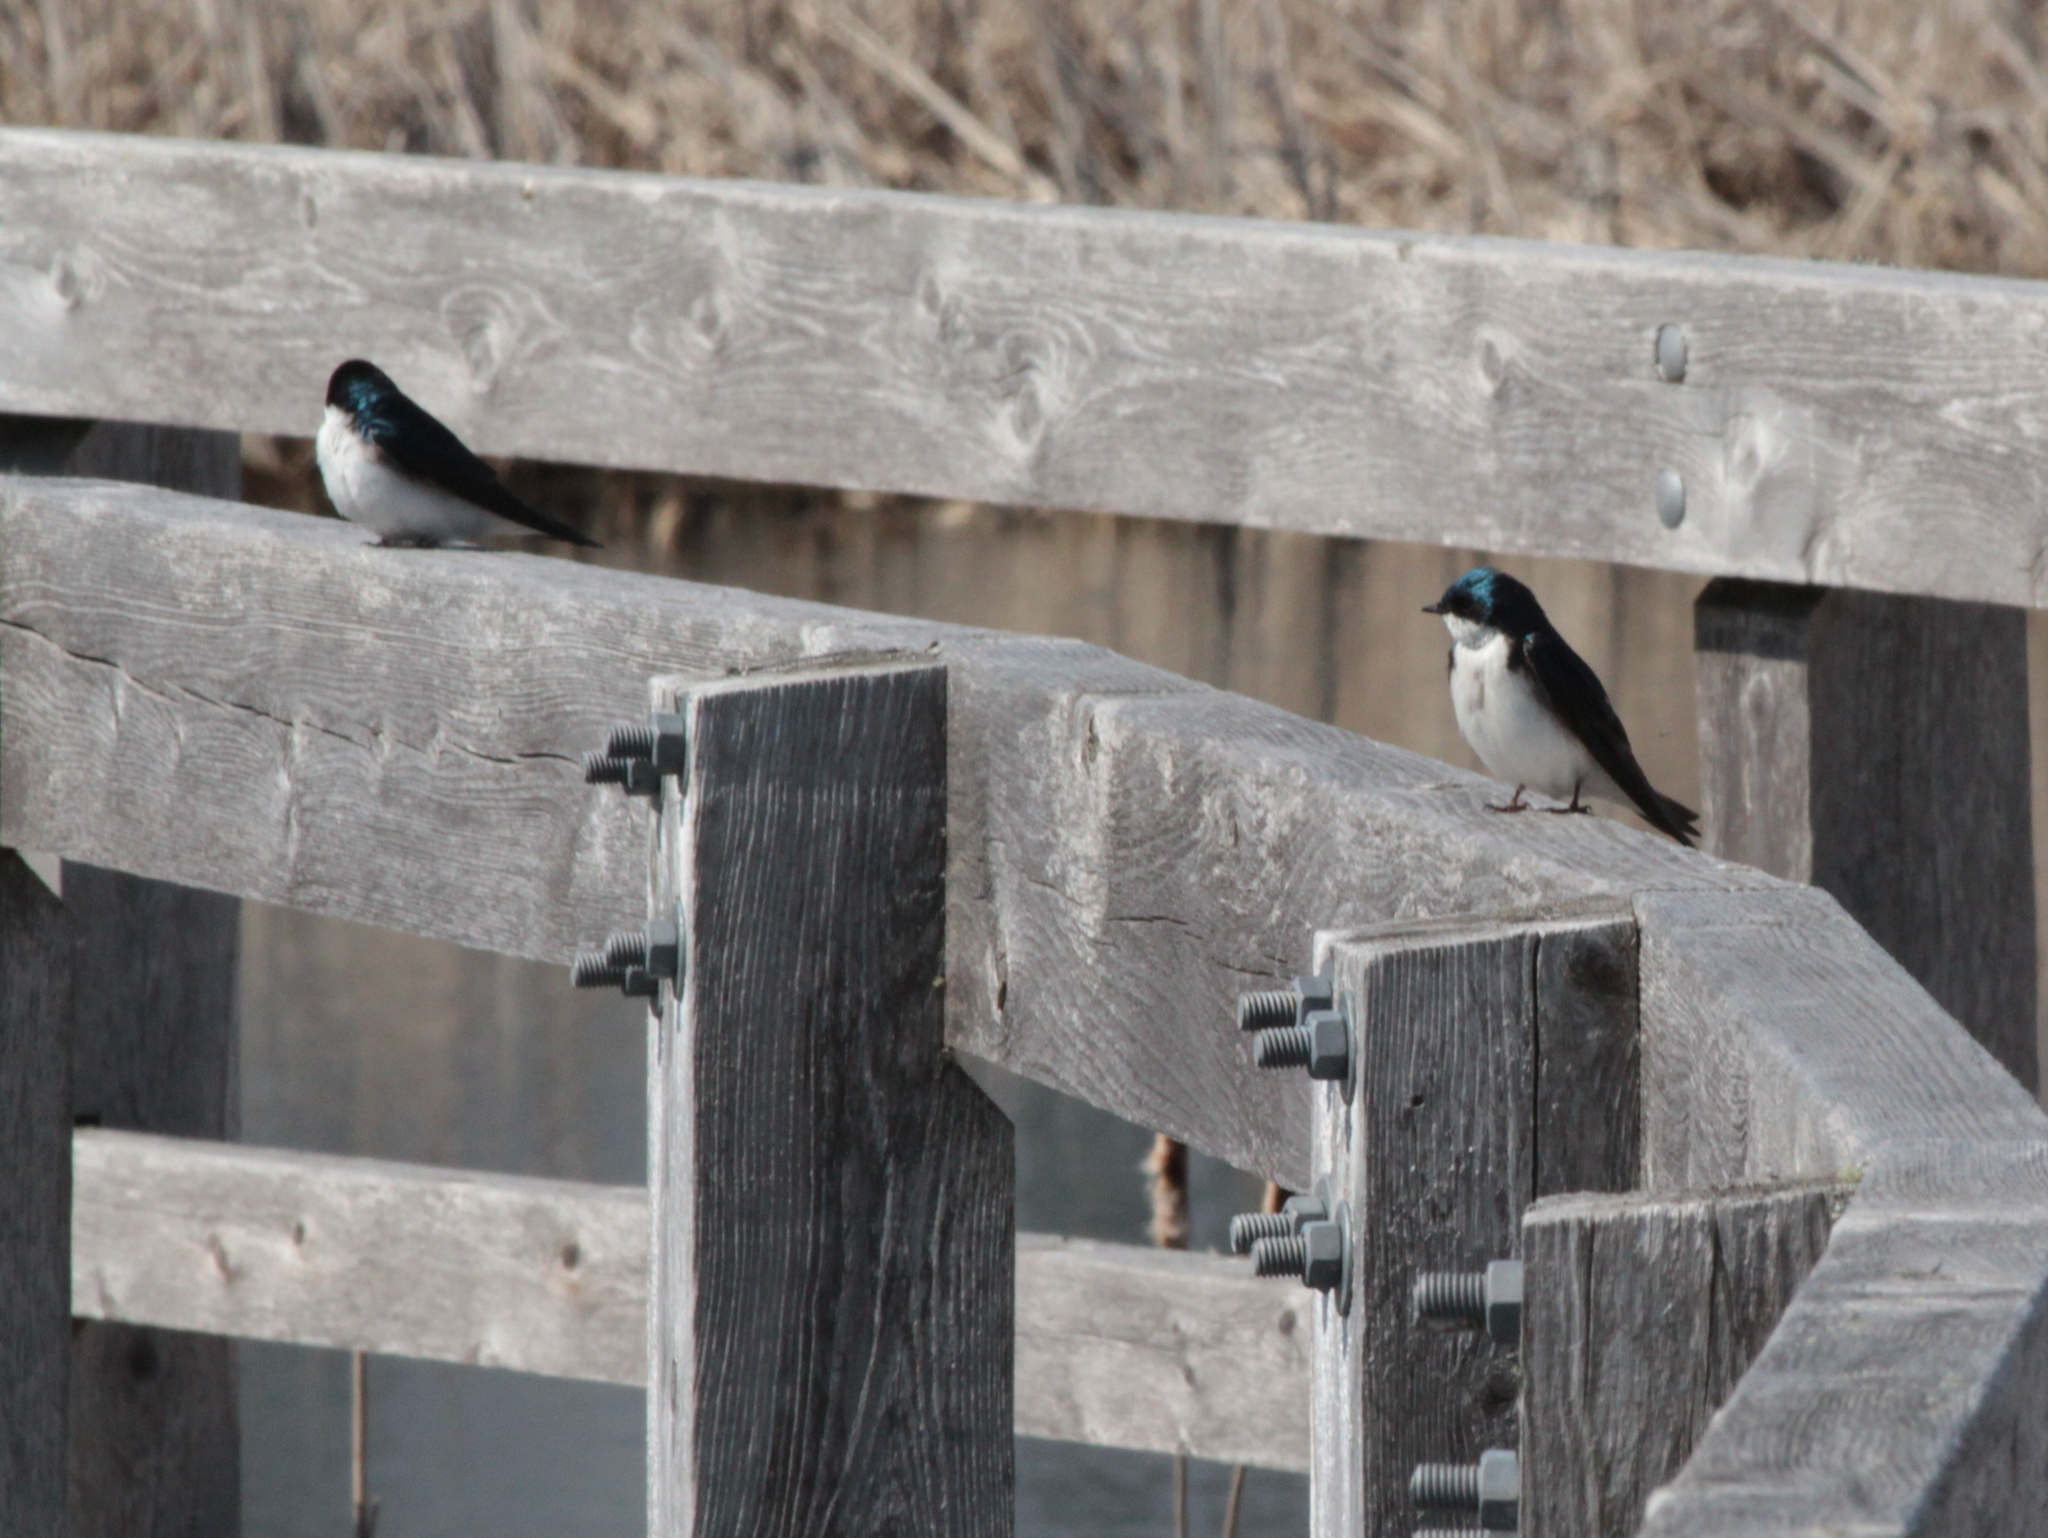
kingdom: Animalia
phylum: Chordata
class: Aves
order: Passeriformes
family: Hirundinidae
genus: Tachycineta
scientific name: Tachycineta bicolor
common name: Tree swallow
